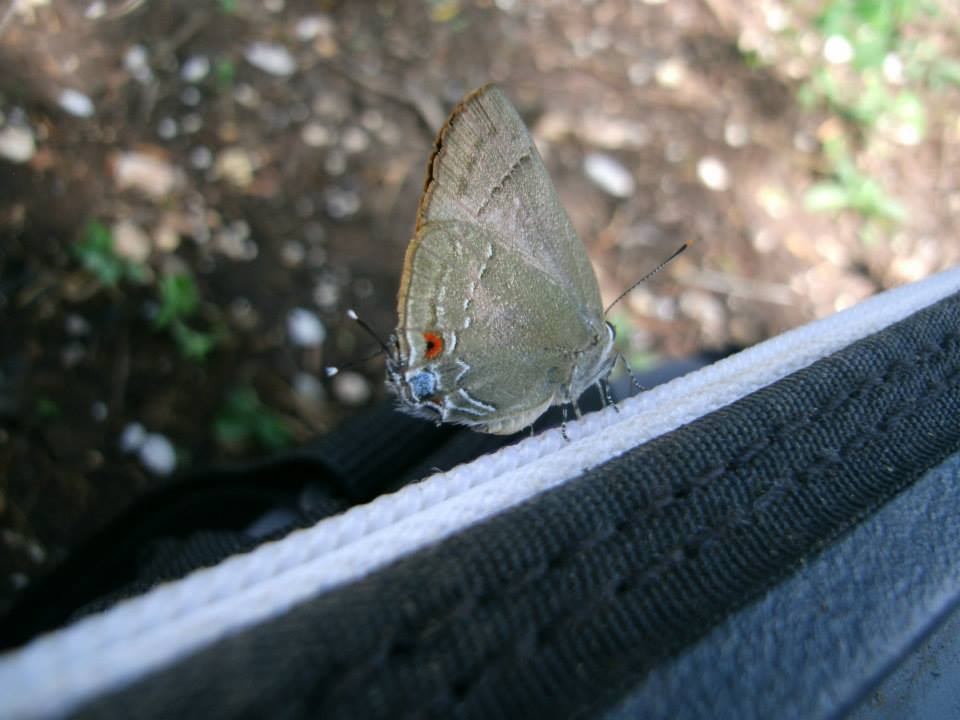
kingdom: Animalia
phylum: Arthropoda
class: Insecta
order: Lepidoptera
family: Lycaenidae
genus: Thecla
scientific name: Thecla strophius
